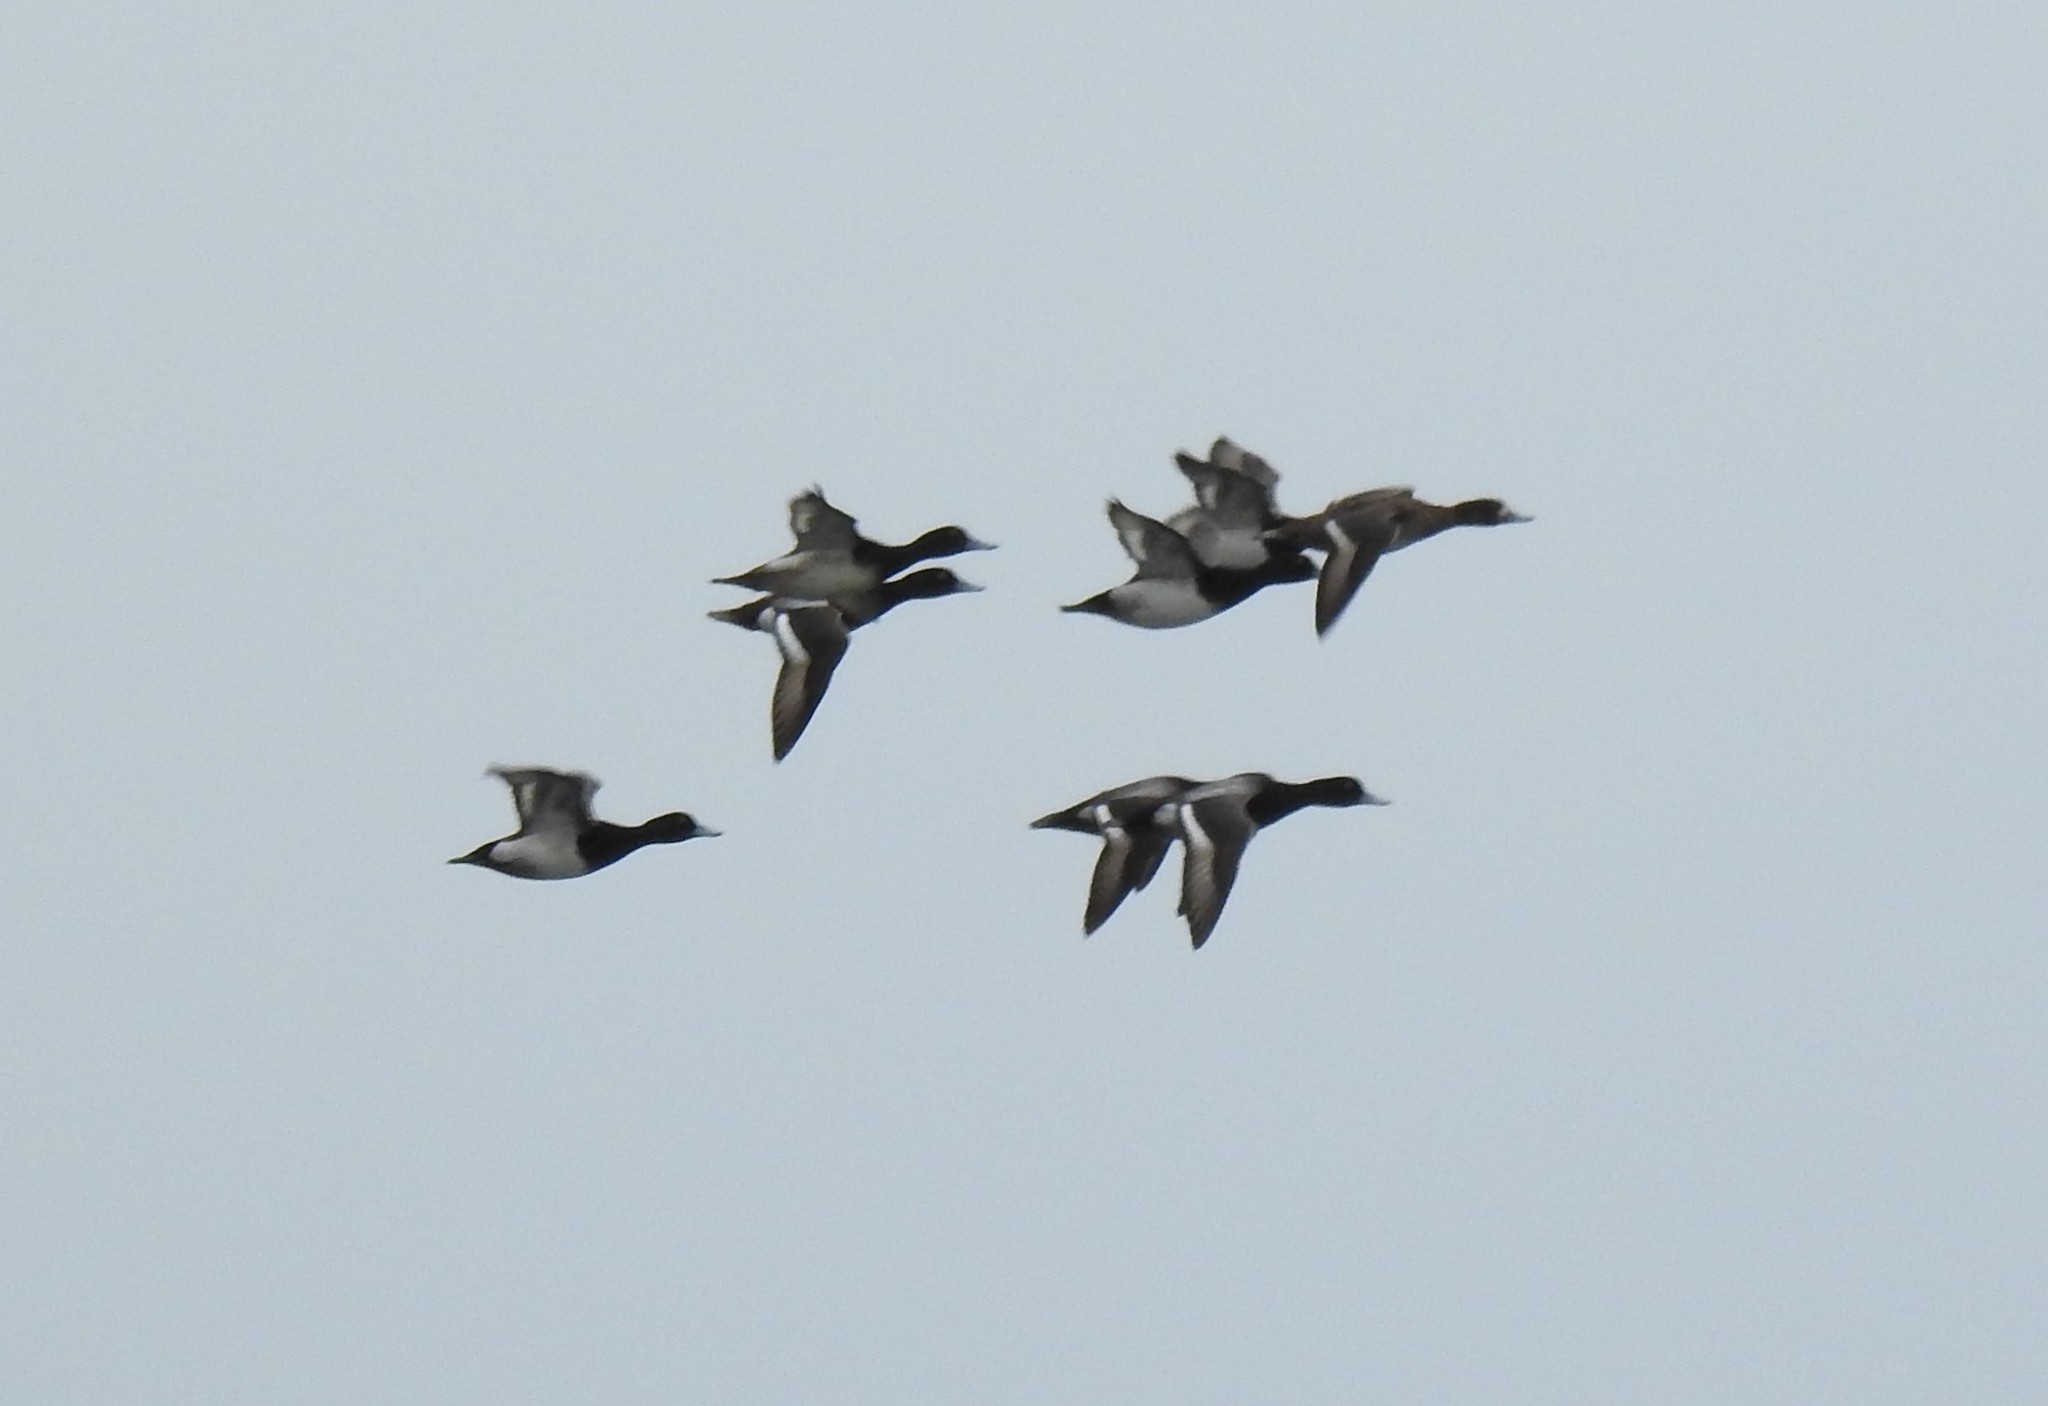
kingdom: Animalia
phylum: Chordata
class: Aves
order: Anseriformes
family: Anatidae
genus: Aythya
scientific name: Aythya affinis
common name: Lesser scaup
